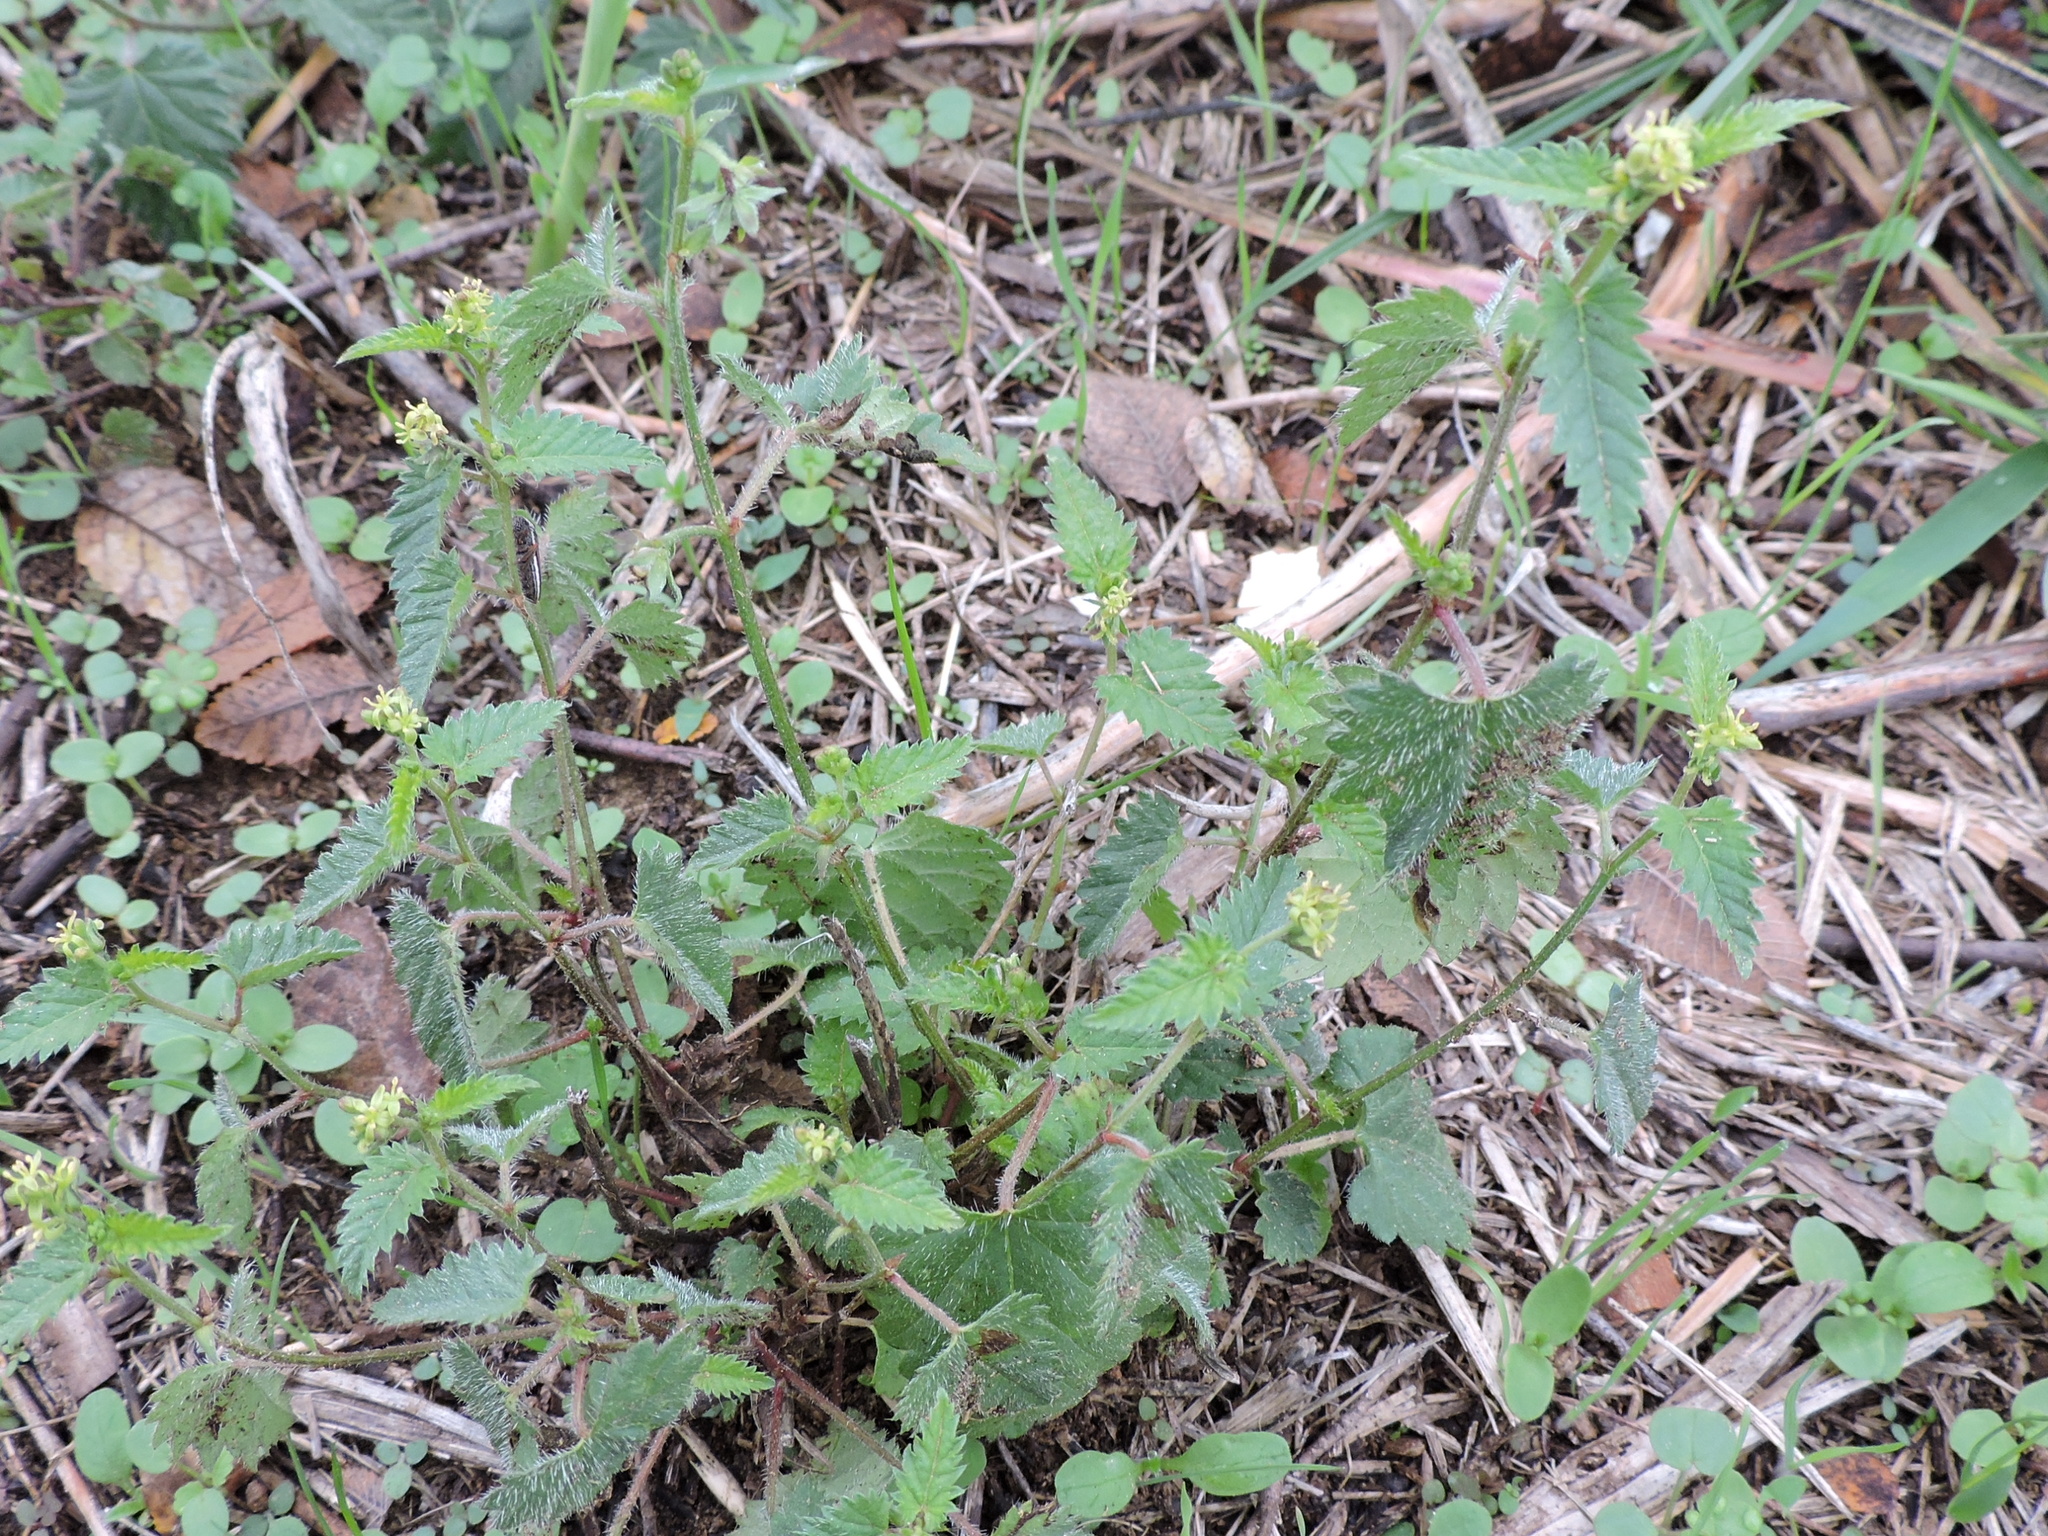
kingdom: Plantae
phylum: Tracheophyta
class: Magnoliopsida
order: Malpighiales
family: Euphorbiaceae
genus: Tragia
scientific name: Tragia ramosa
